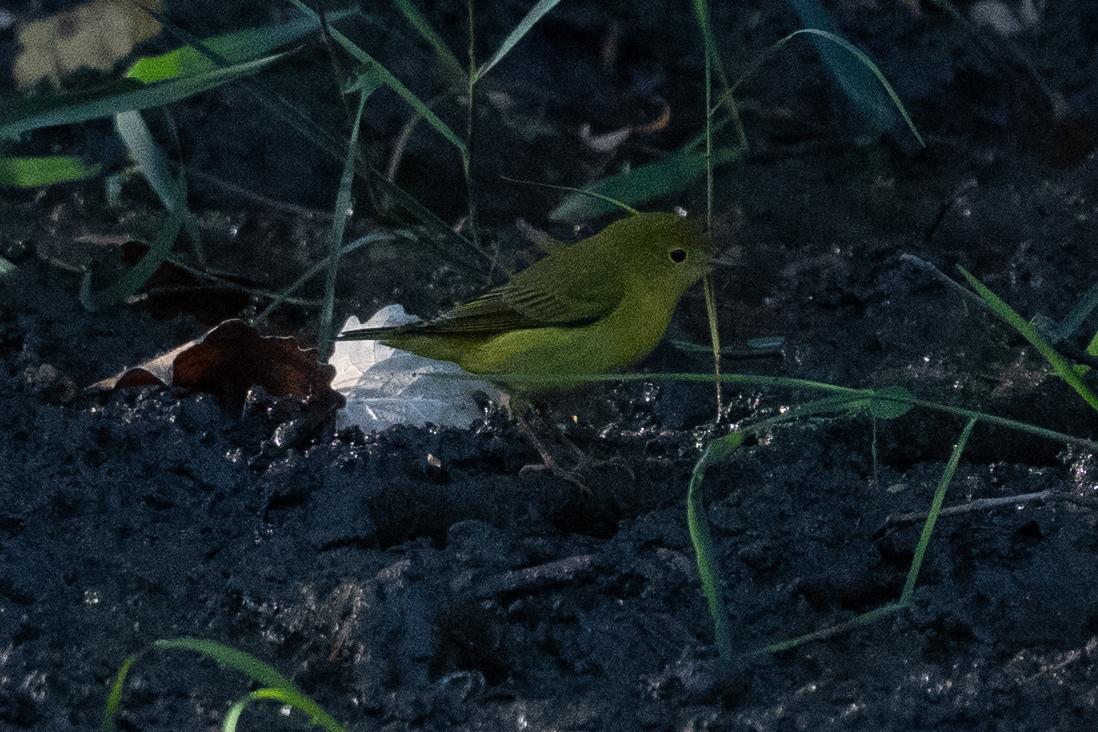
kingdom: Animalia
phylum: Chordata
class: Aves
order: Passeriformes
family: Parulidae
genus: Setophaga
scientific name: Setophaga petechia
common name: Yellow warbler
